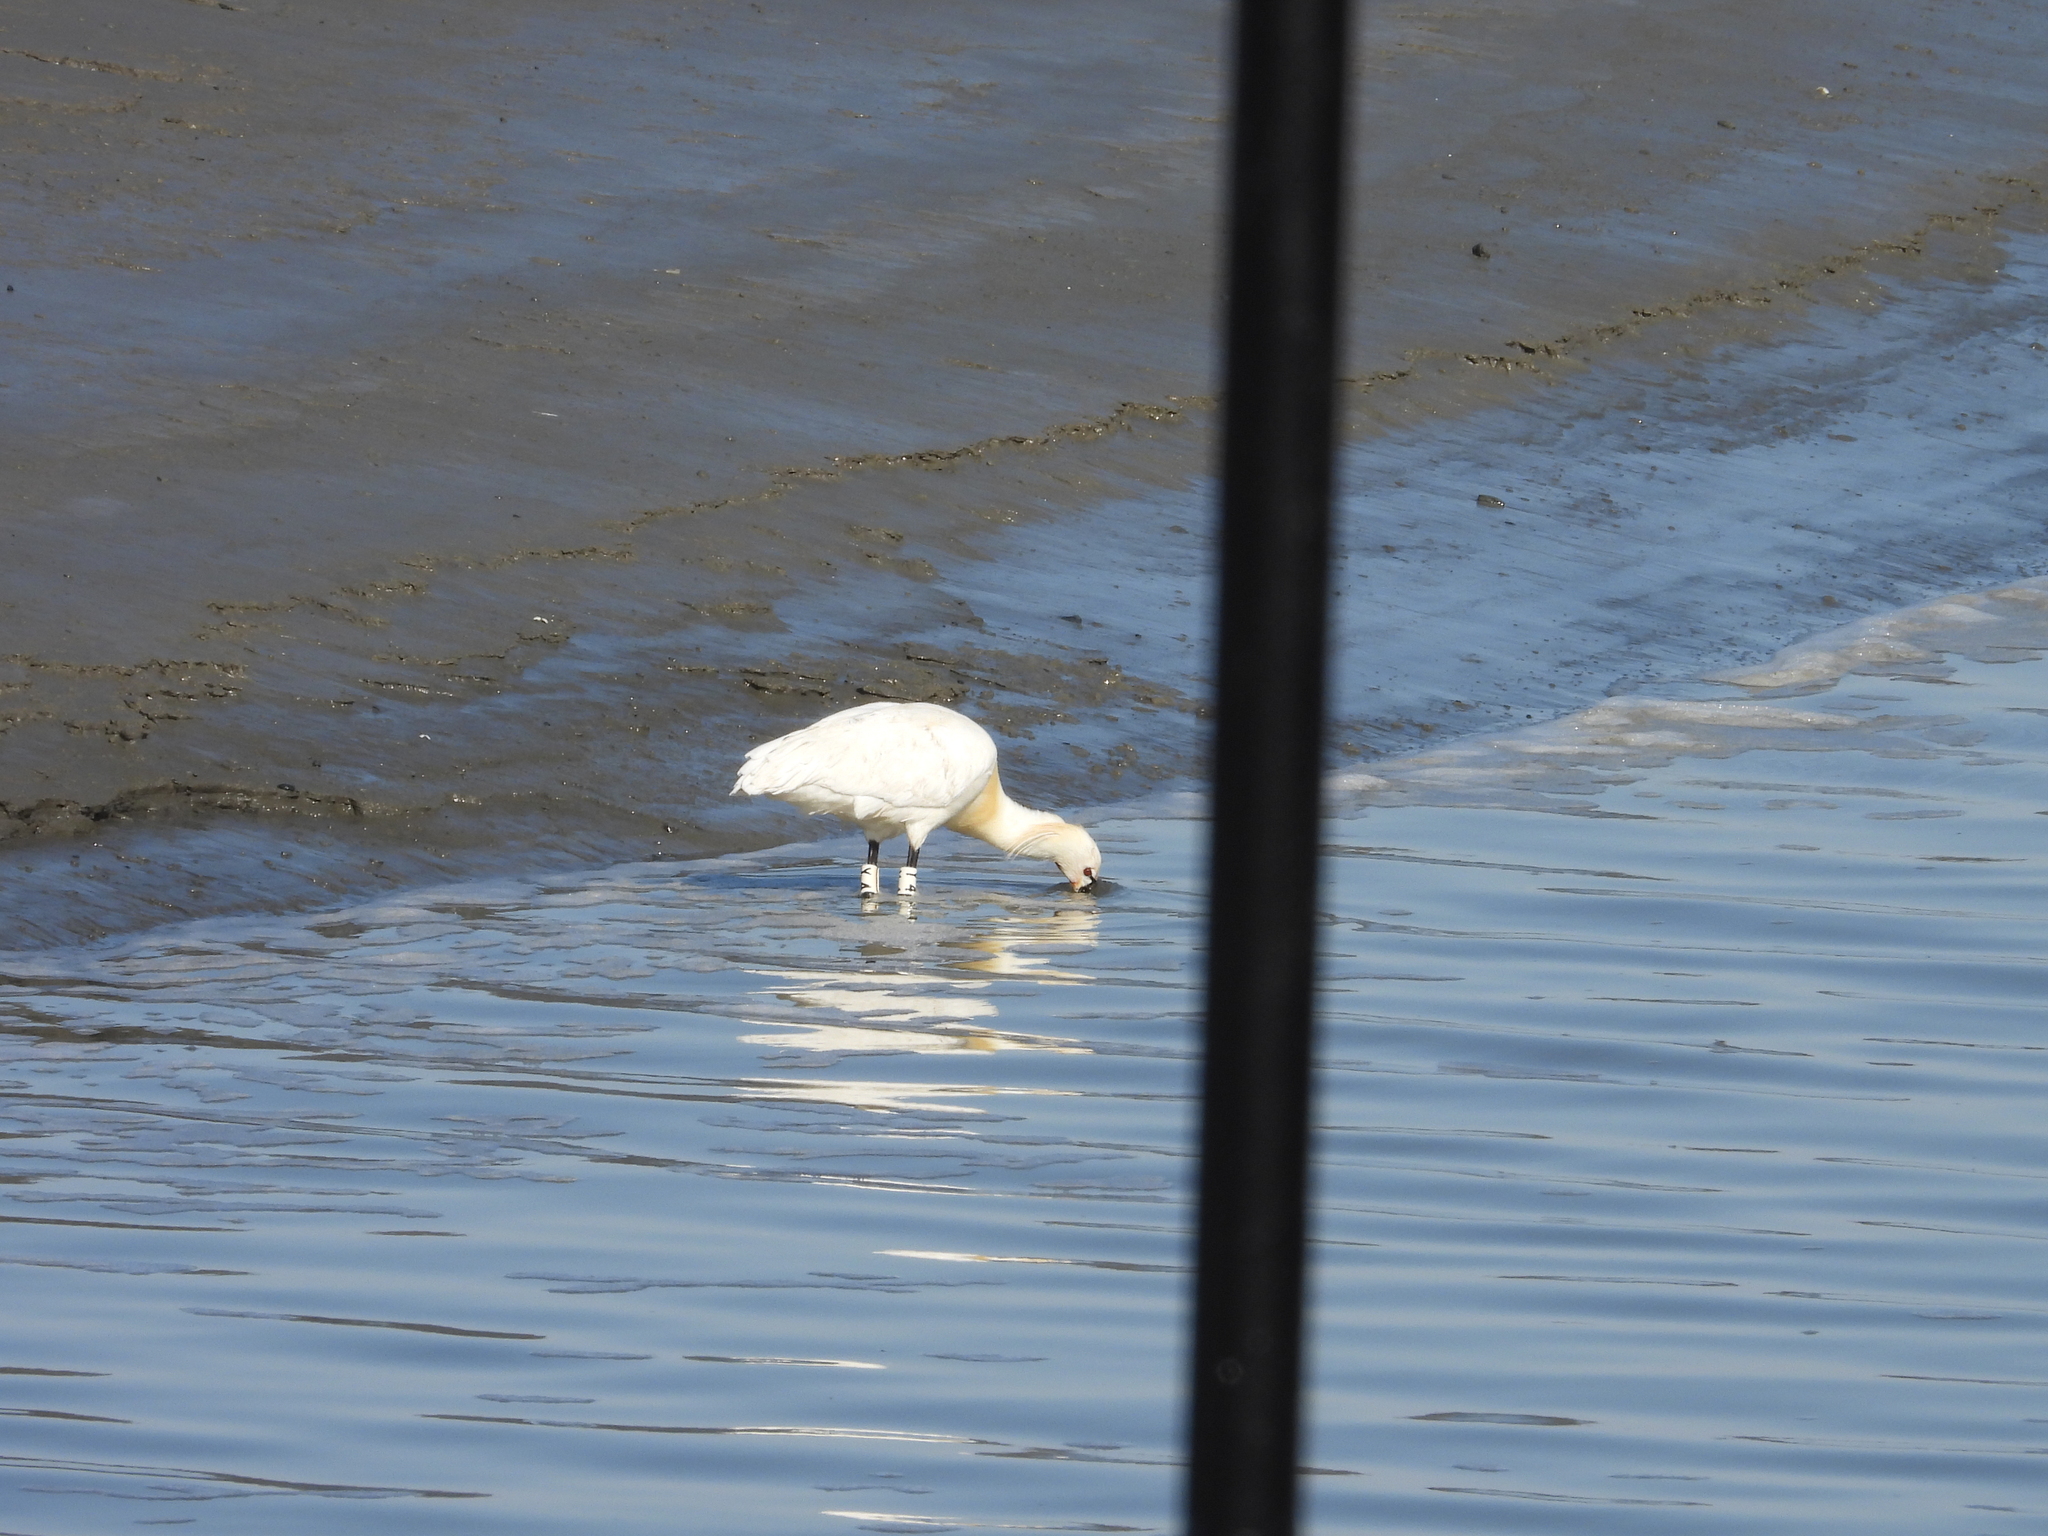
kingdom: Animalia
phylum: Chordata
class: Aves
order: Pelecaniformes
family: Threskiornithidae
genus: Platalea
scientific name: Platalea leucorodia
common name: Eurasian spoonbill
